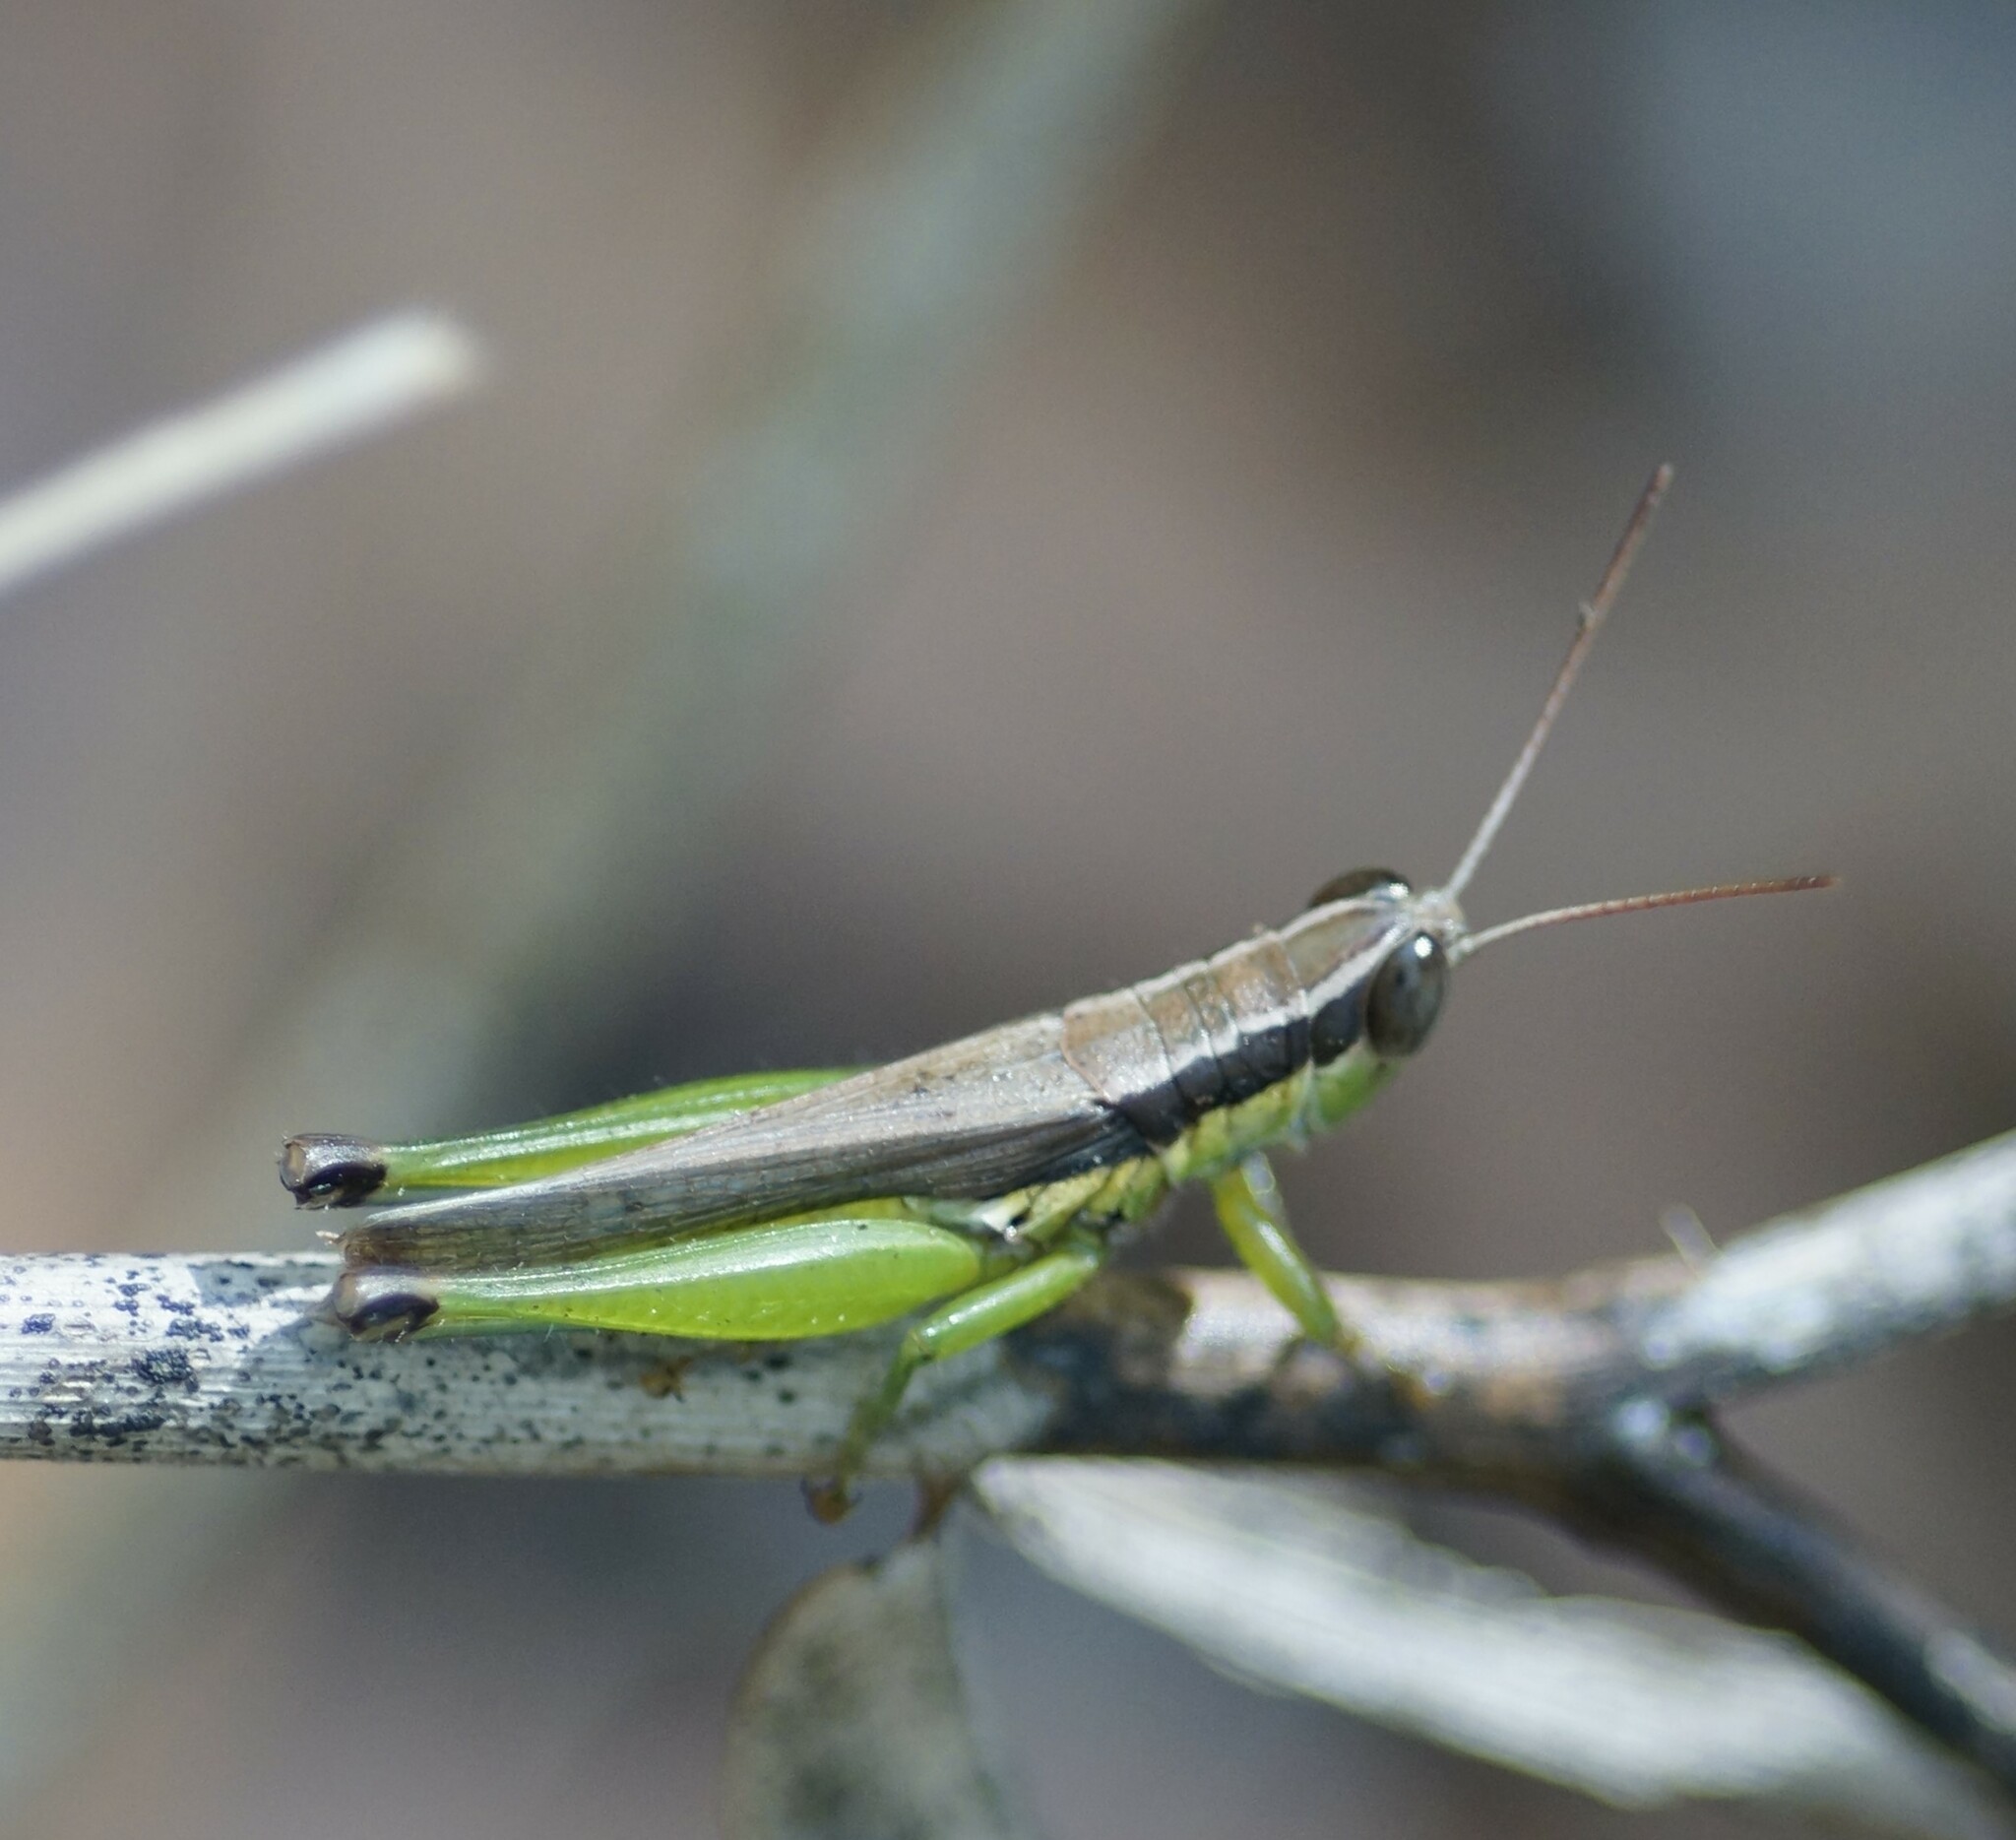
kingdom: Animalia
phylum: Arthropoda
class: Insecta
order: Orthoptera
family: Acrididae
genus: Oxya
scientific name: Oxya japonica
